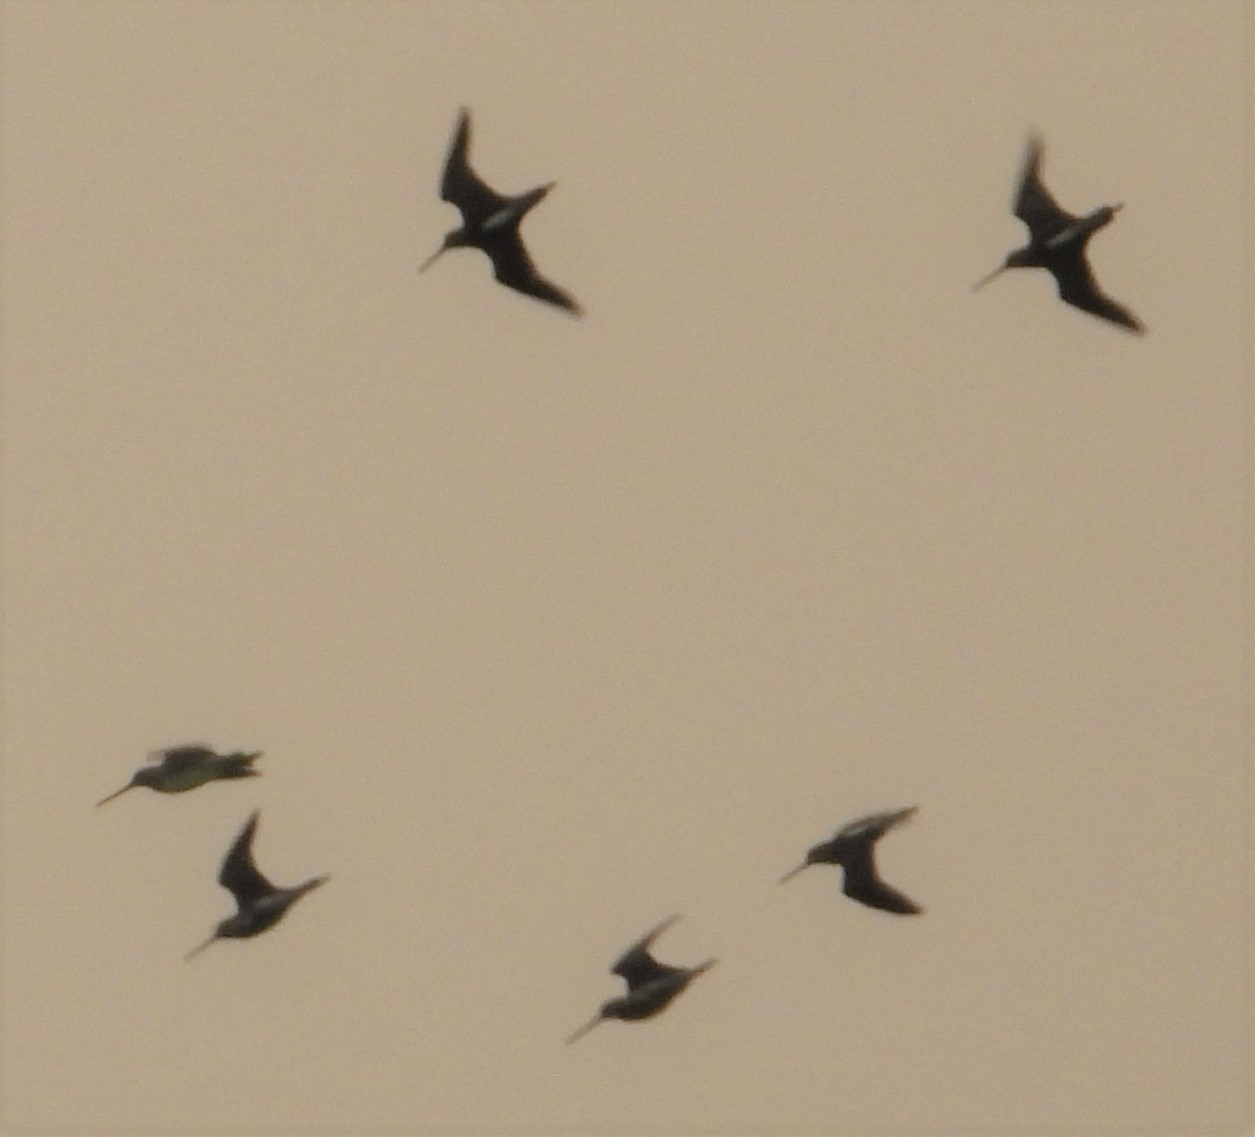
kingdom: Animalia
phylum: Chordata
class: Aves
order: Charadriiformes
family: Scolopacidae
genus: Limnodromus
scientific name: Limnodromus
